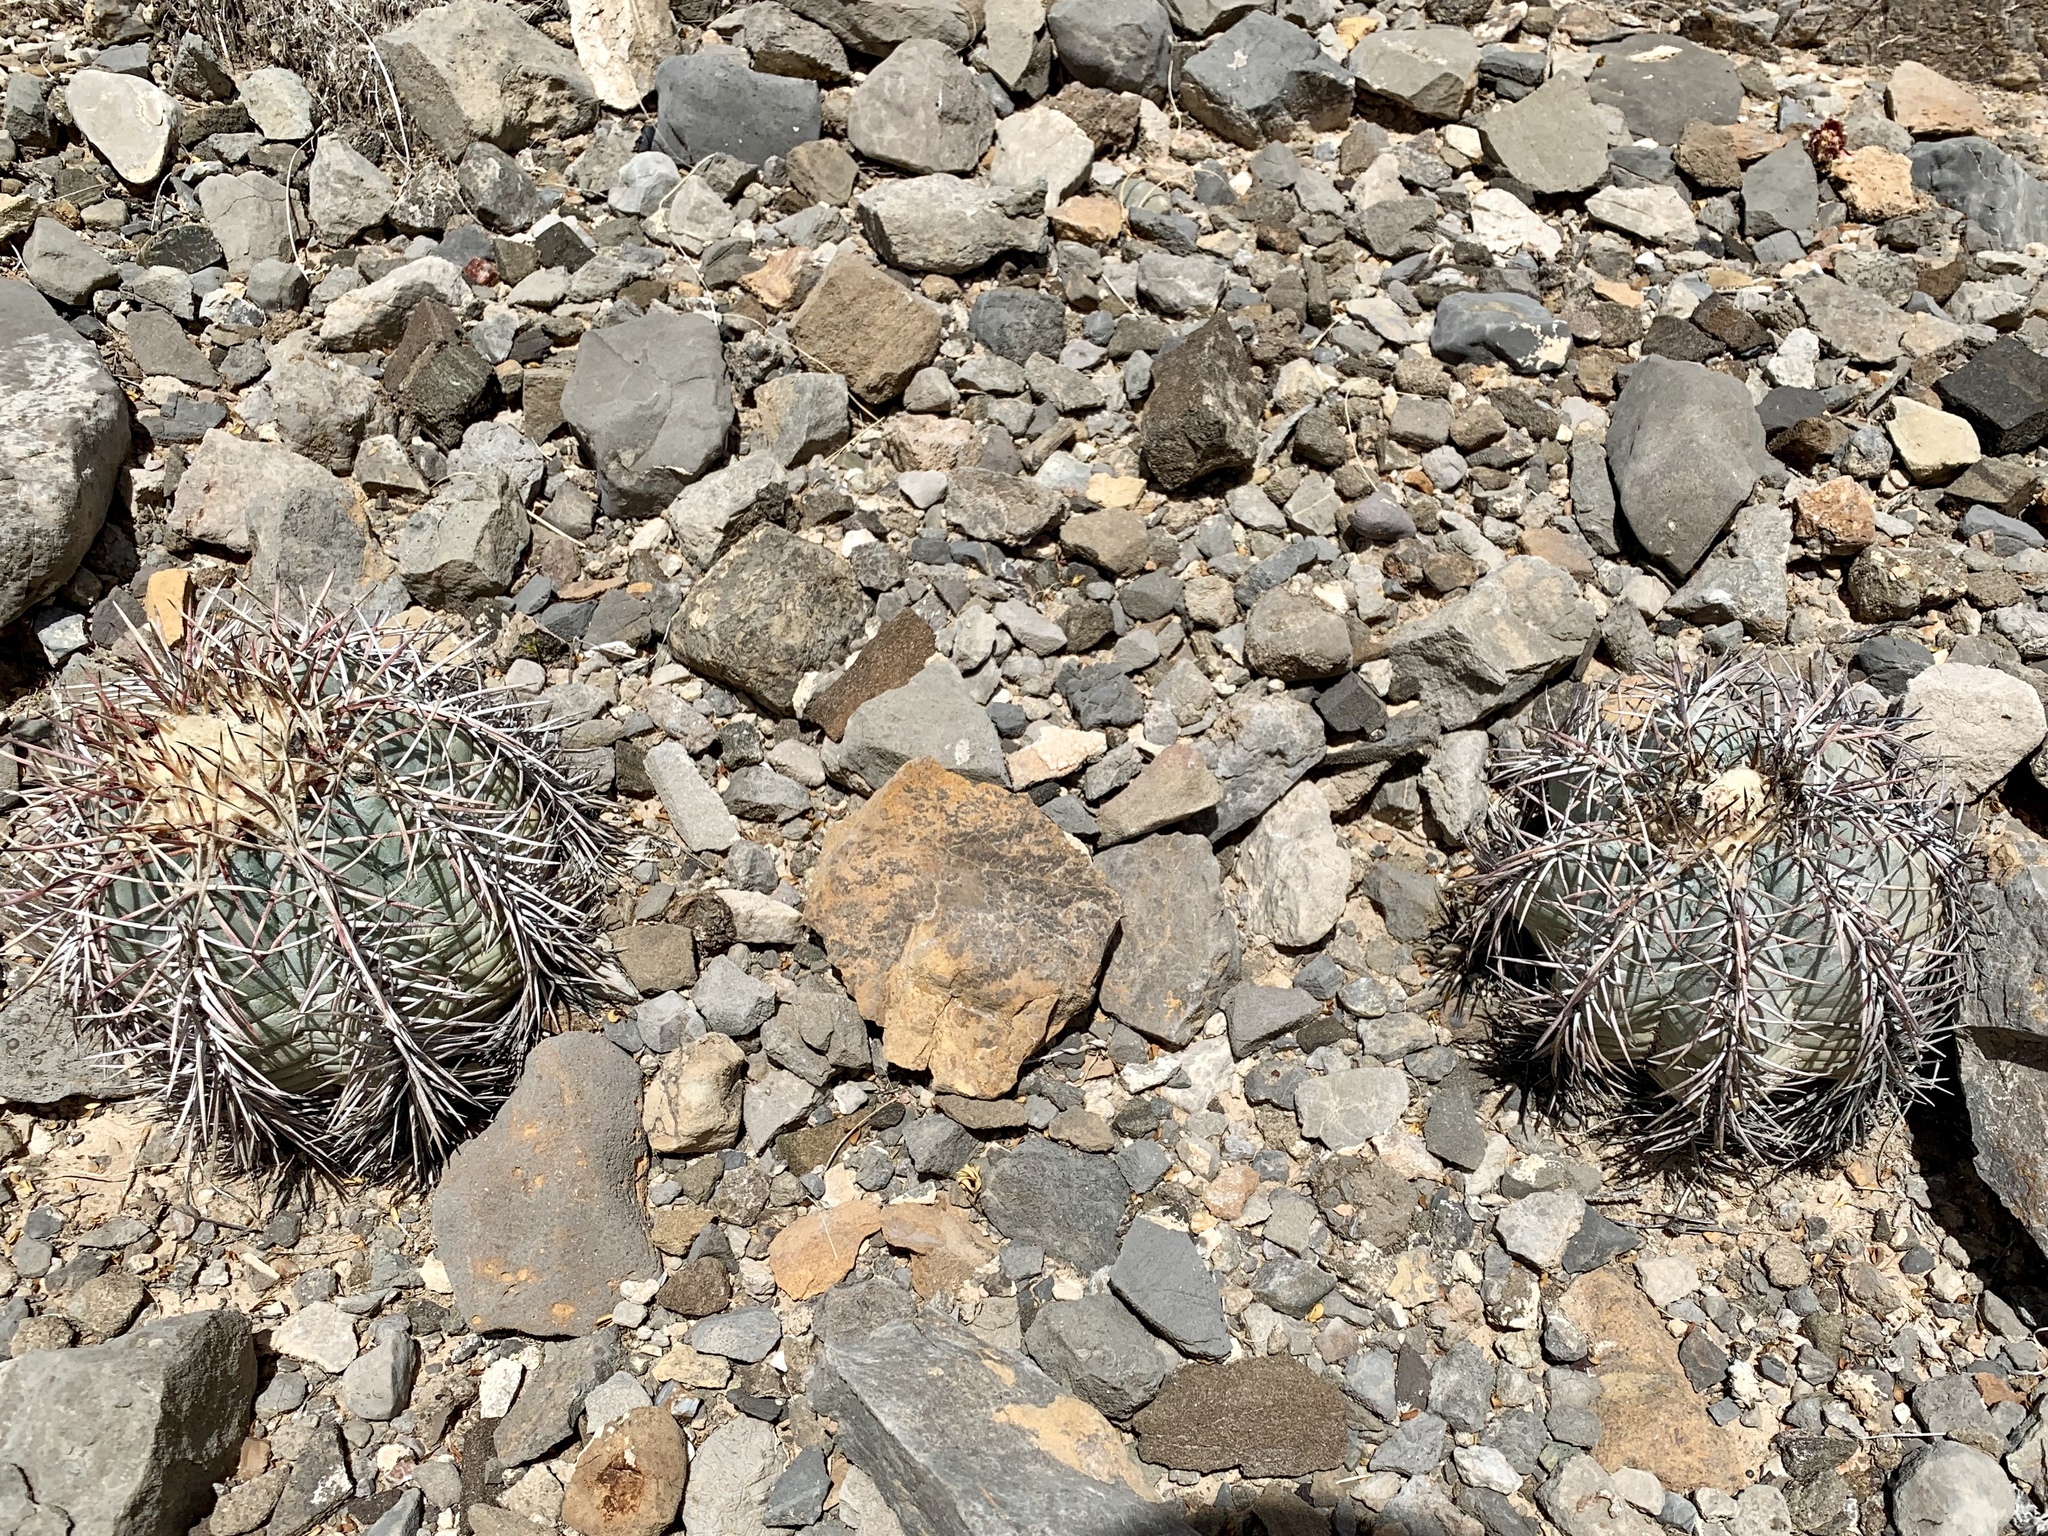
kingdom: Plantae
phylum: Tracheophyta
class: Magnoliopsida
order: Caryophyllales
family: Cactaceae
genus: Echinocactus
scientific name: Echinocactus horizonthalonius
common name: Devilshead
